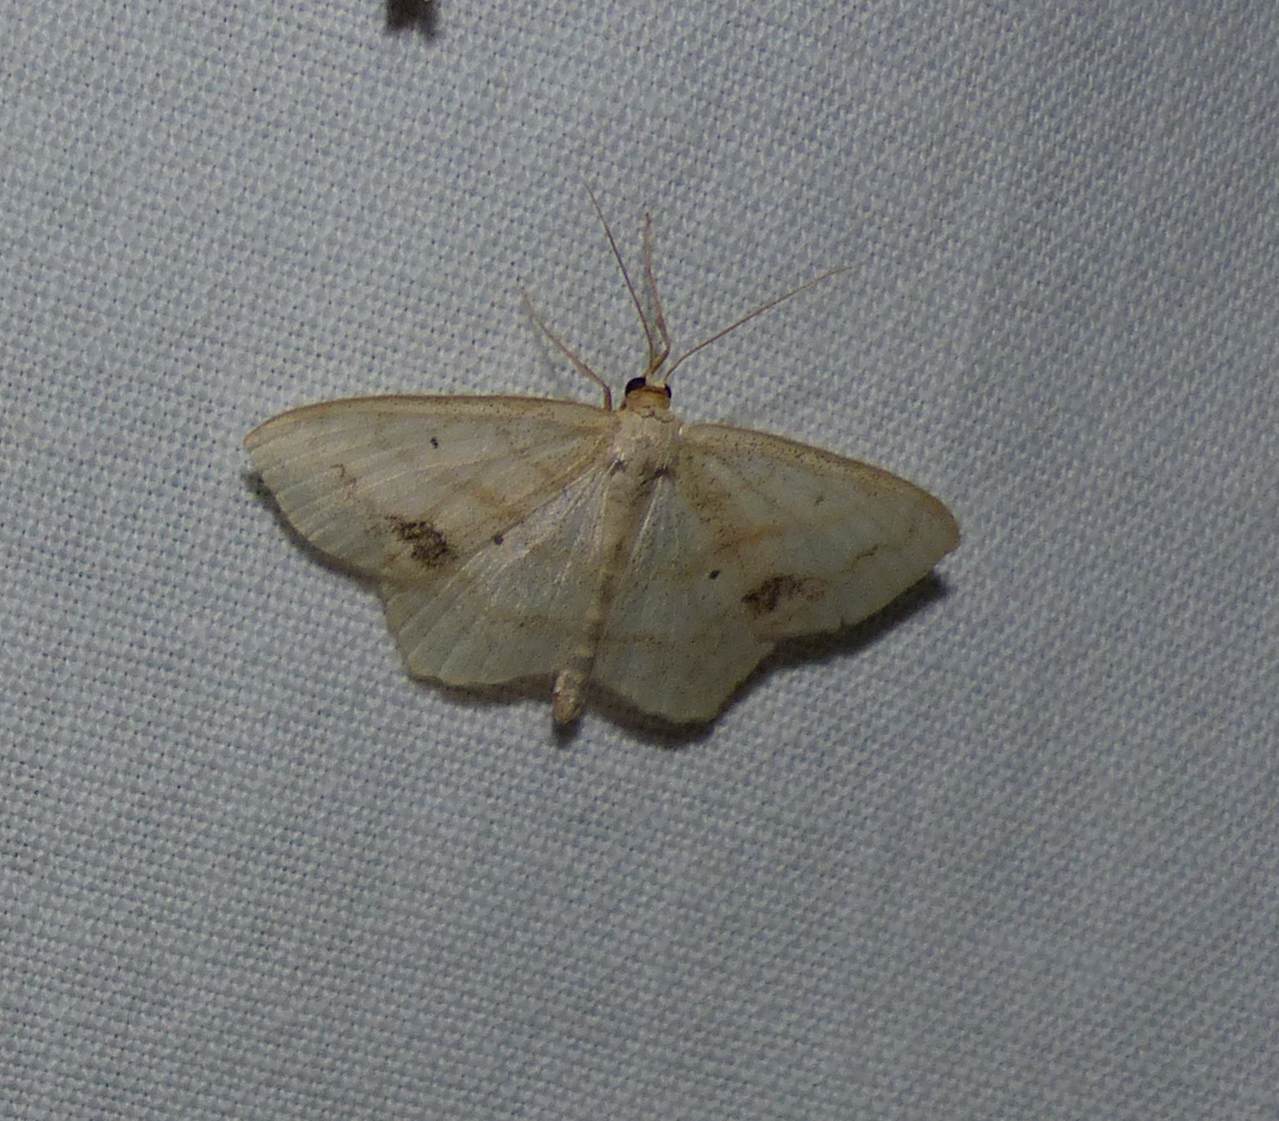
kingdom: Animalia
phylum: Arthropoda
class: Insecta
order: Lepidoptera
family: Geometridae
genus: Scopula
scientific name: Scopula limboundata
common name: Large lace border
